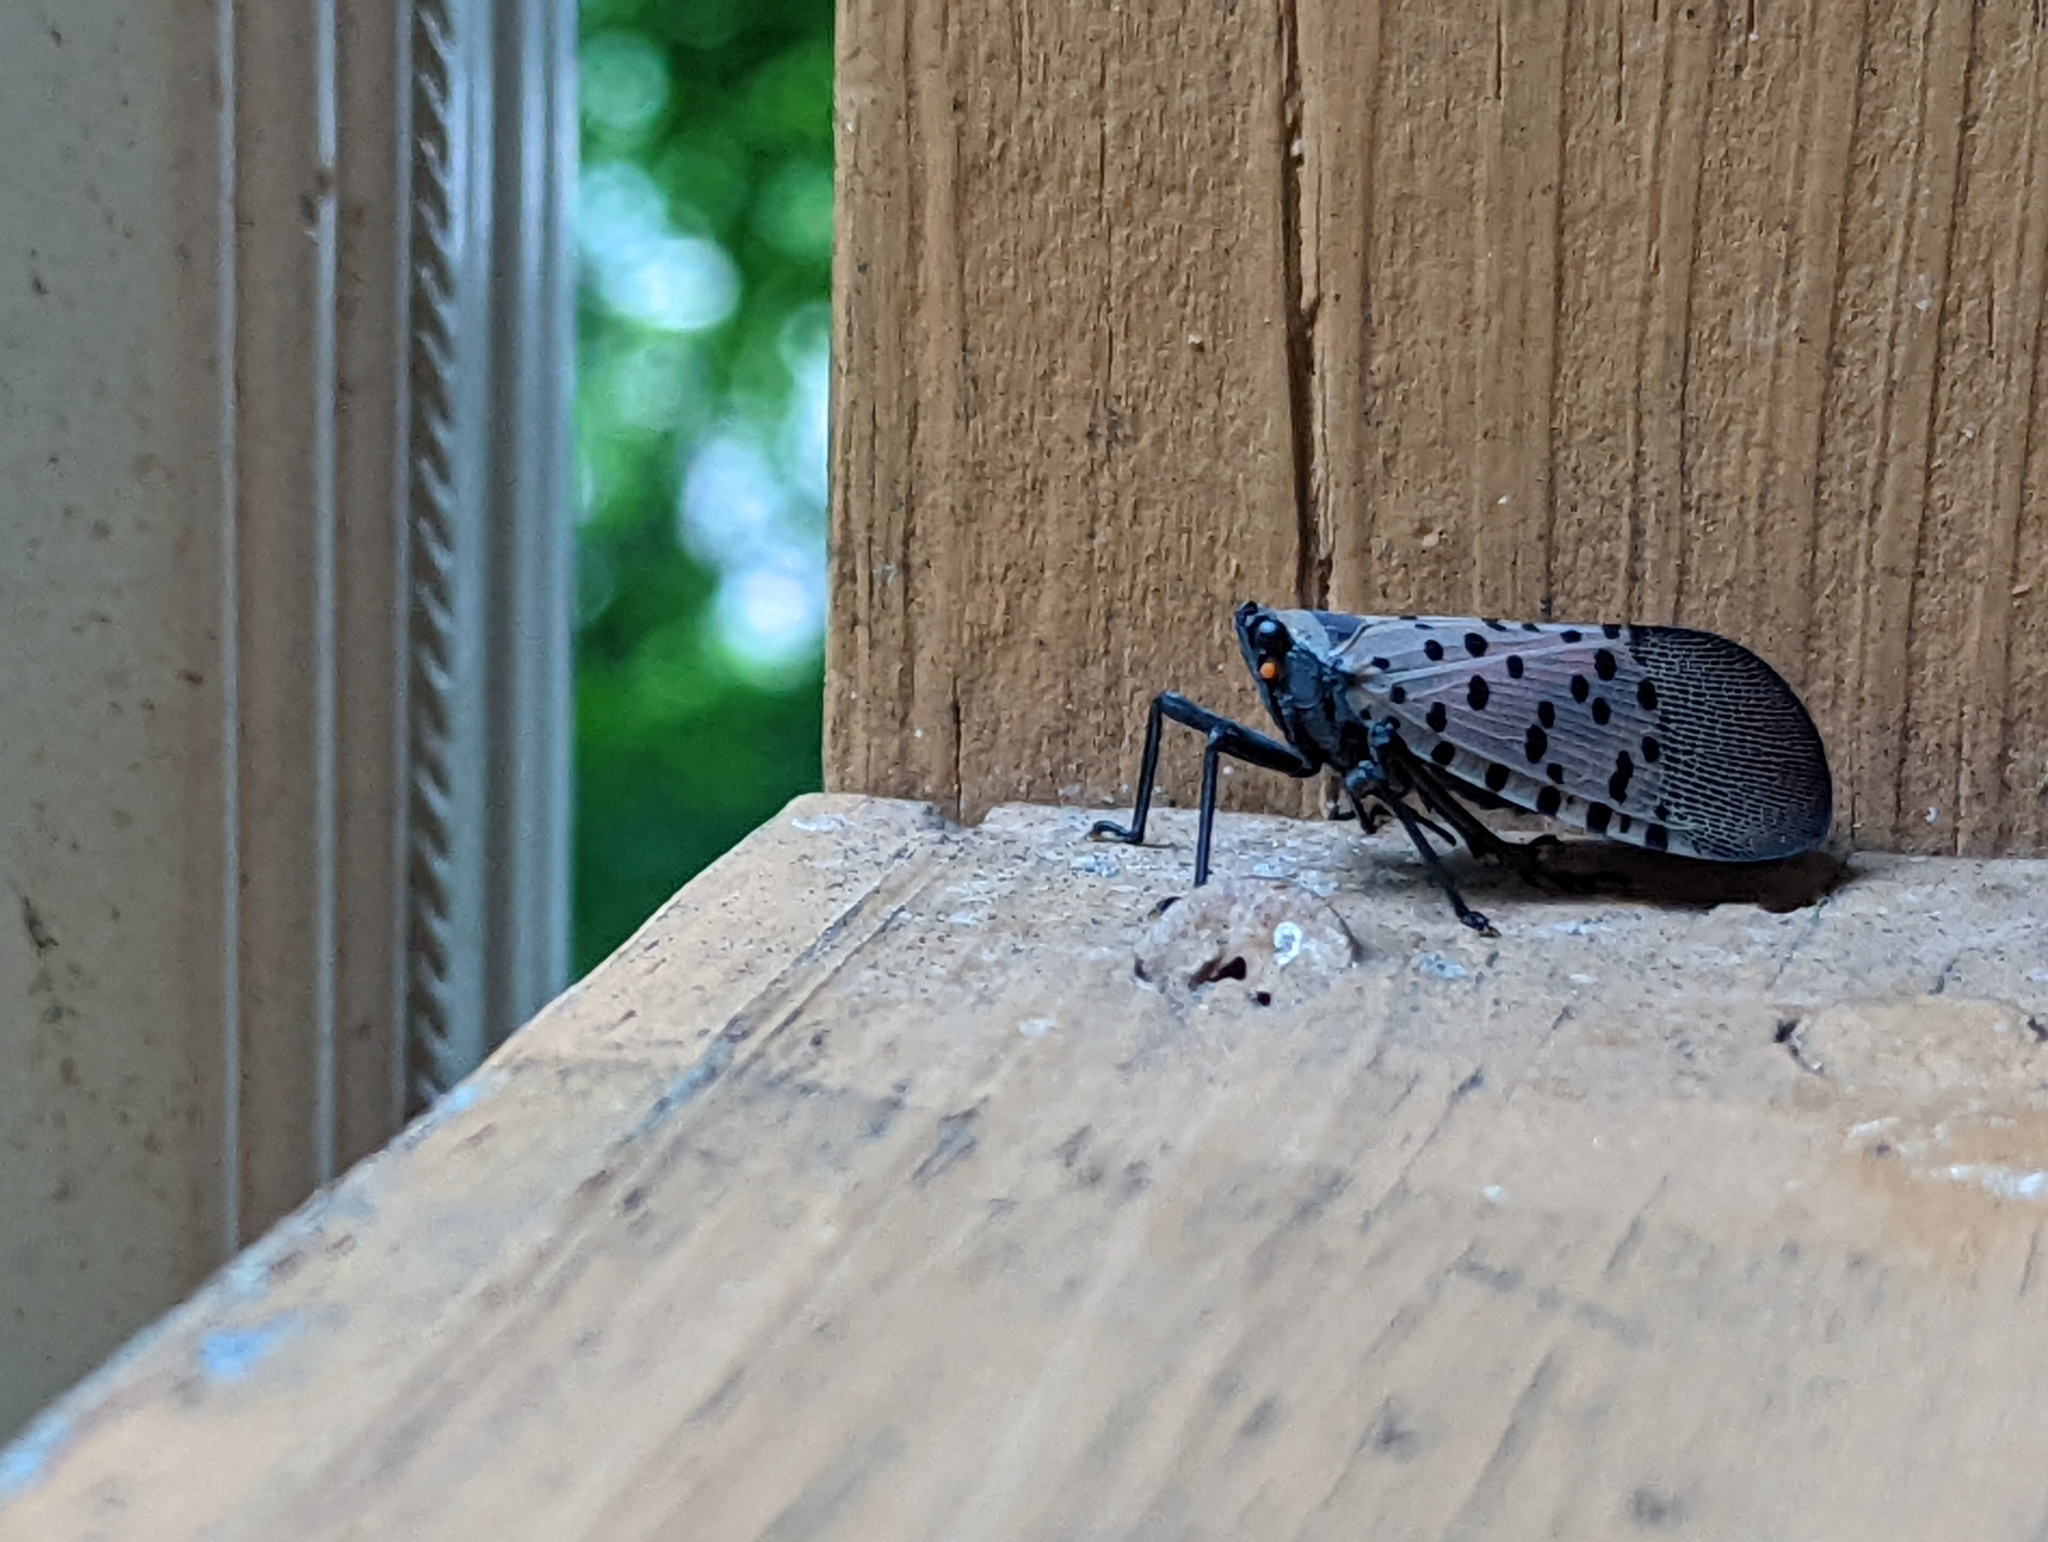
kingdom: Animalia
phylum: Arthropoda
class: Insecta
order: Hemiptera
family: Fulgoridae
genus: Lycorma
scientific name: Lycorma delicatula
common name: Spotted lanternfly
